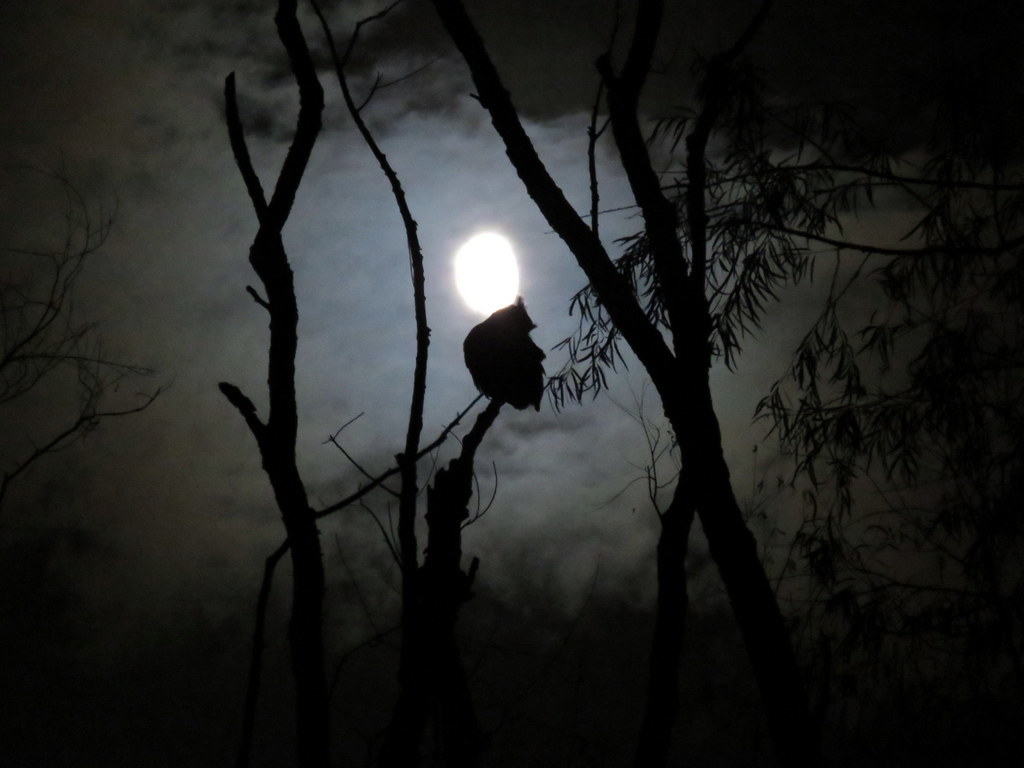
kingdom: Animalia
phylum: Chordata
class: Aves
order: Strigiformes
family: Strigidae
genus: Bubo
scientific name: Bubo virginianus
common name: Great horned owl
